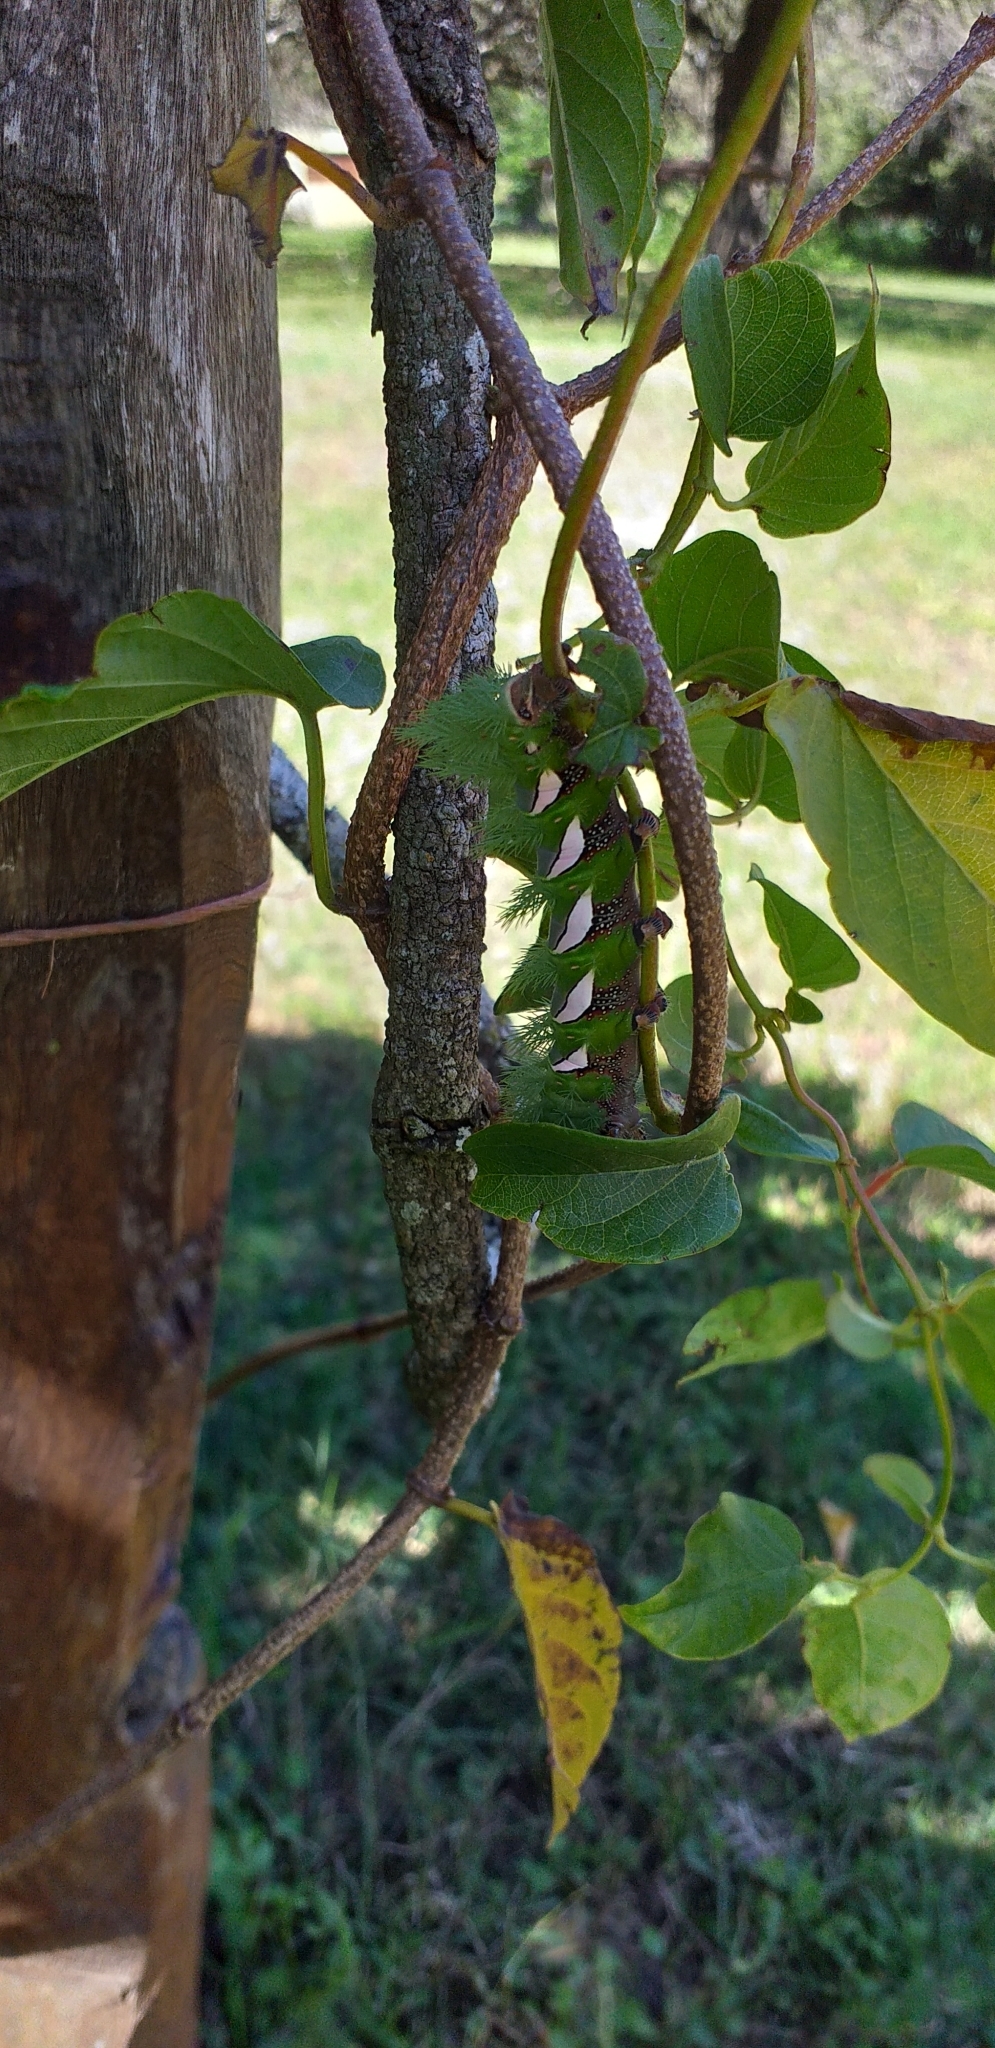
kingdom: Animalia
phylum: Arthropoda
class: Insecta
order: Lepidoptera
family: Saturniidae
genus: Automeris
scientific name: Automeris naranja
